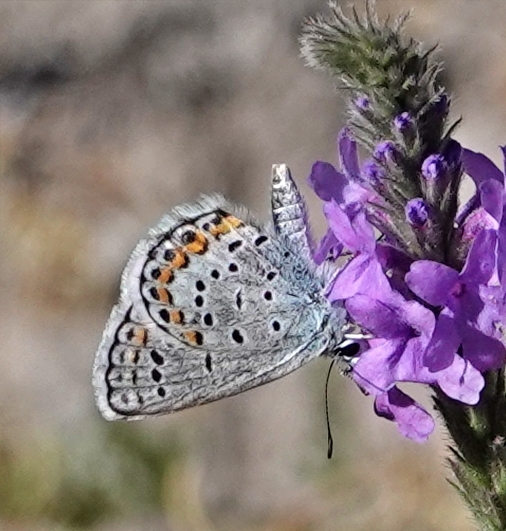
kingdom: Animalia
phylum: Arthropoda
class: Insecta
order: Lepidoptera
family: Lycaenidae
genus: Lycaeides
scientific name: Lycaeides melissa
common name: Melissa blue
